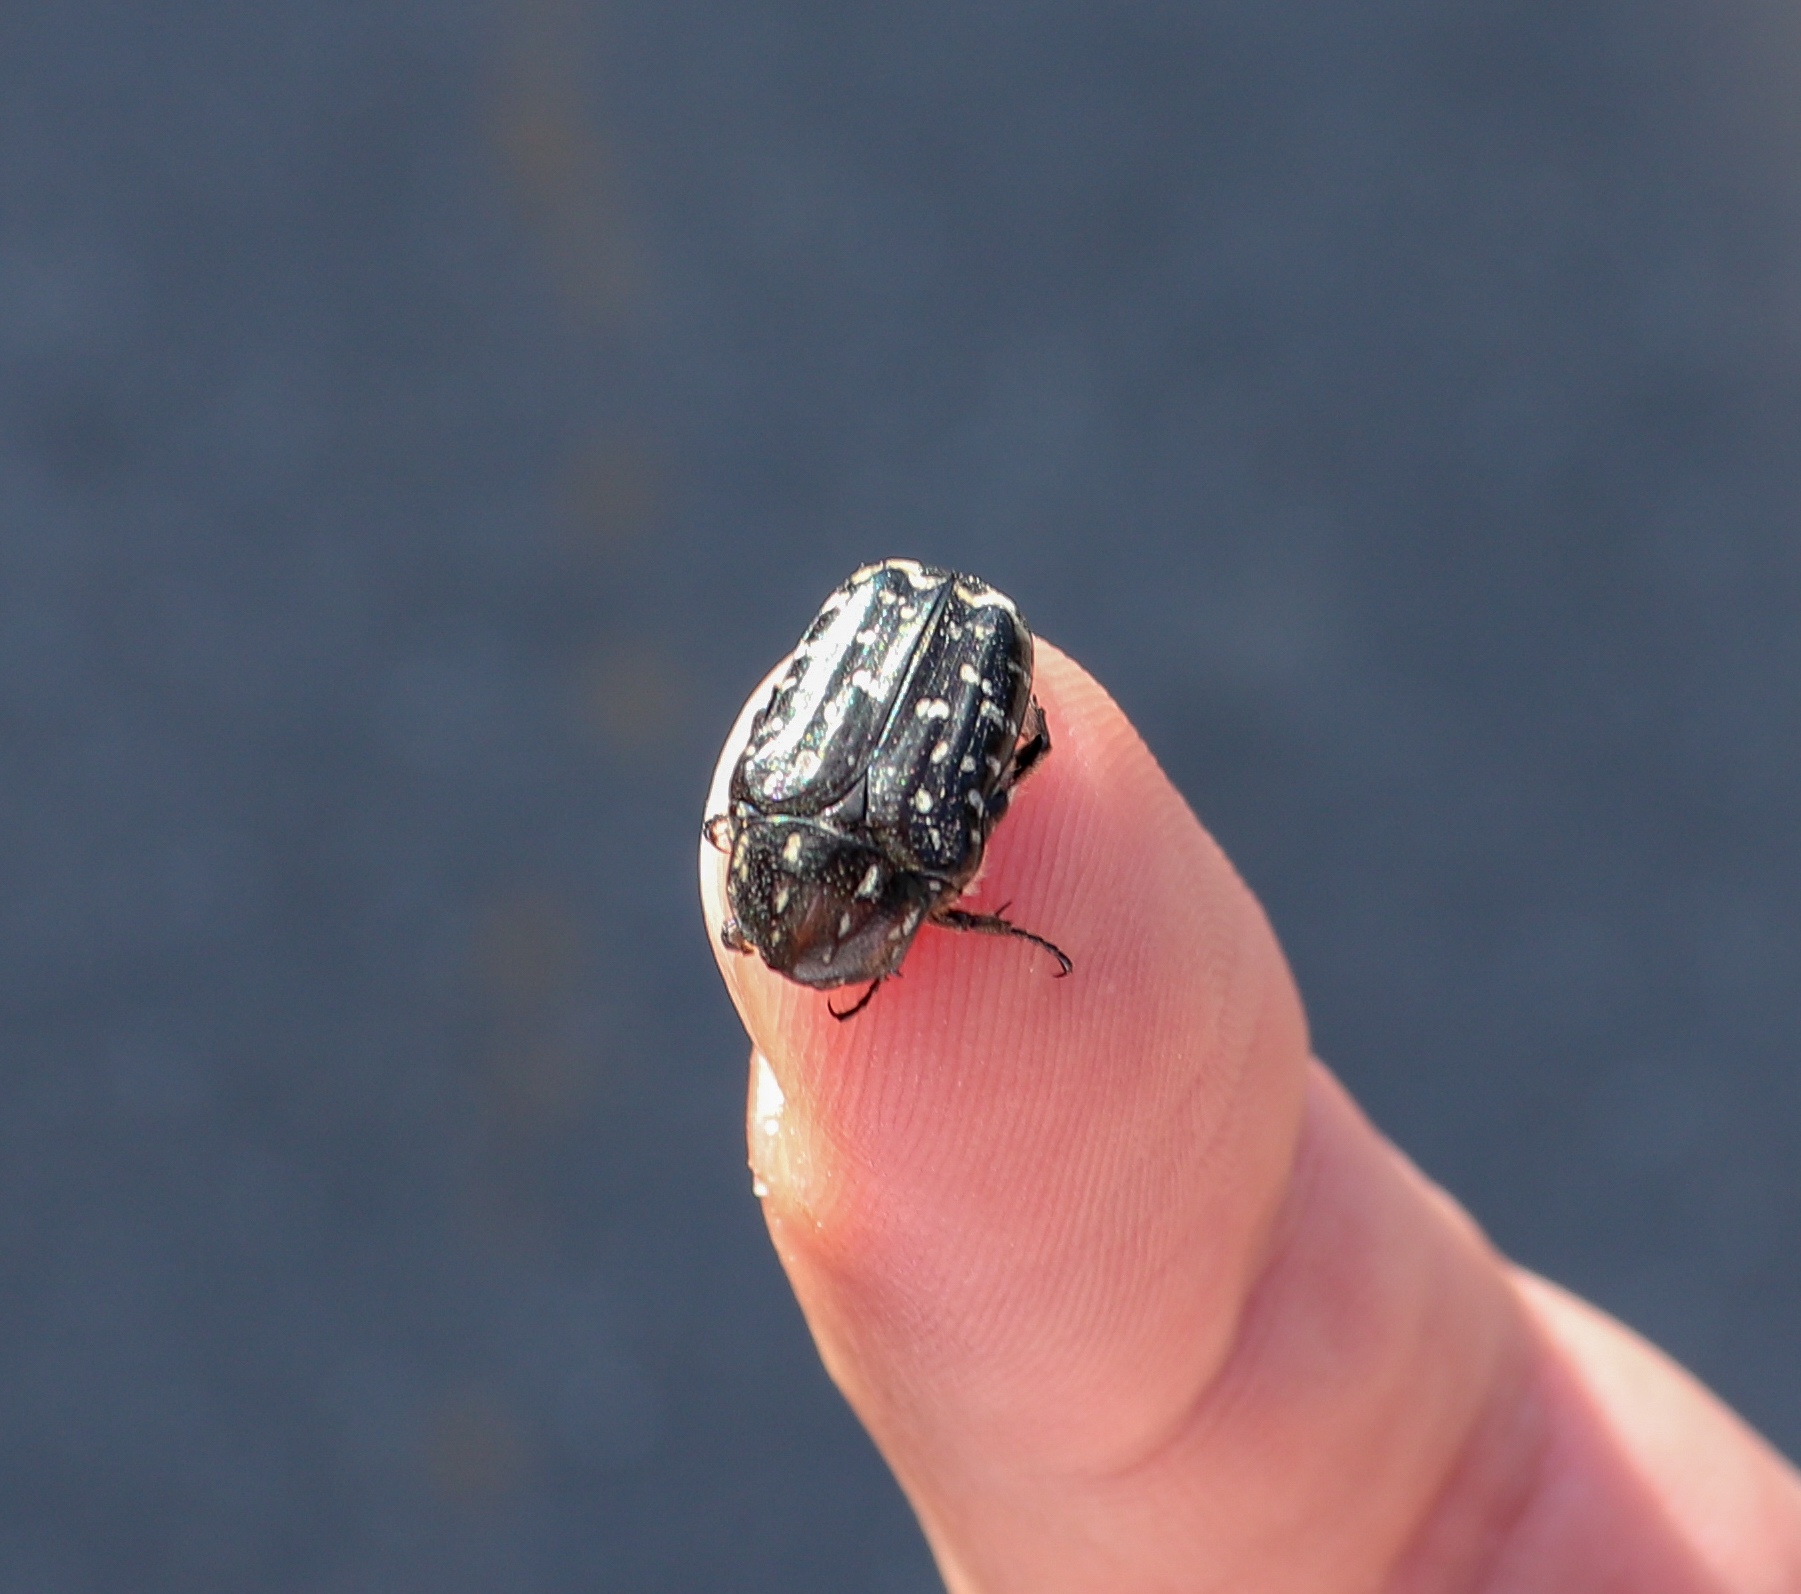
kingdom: Animalia
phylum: Arthropoda
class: Insecta
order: Coleoptera
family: Scarabaeidae
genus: Oxythyrea
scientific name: Oxythyrea funesta
